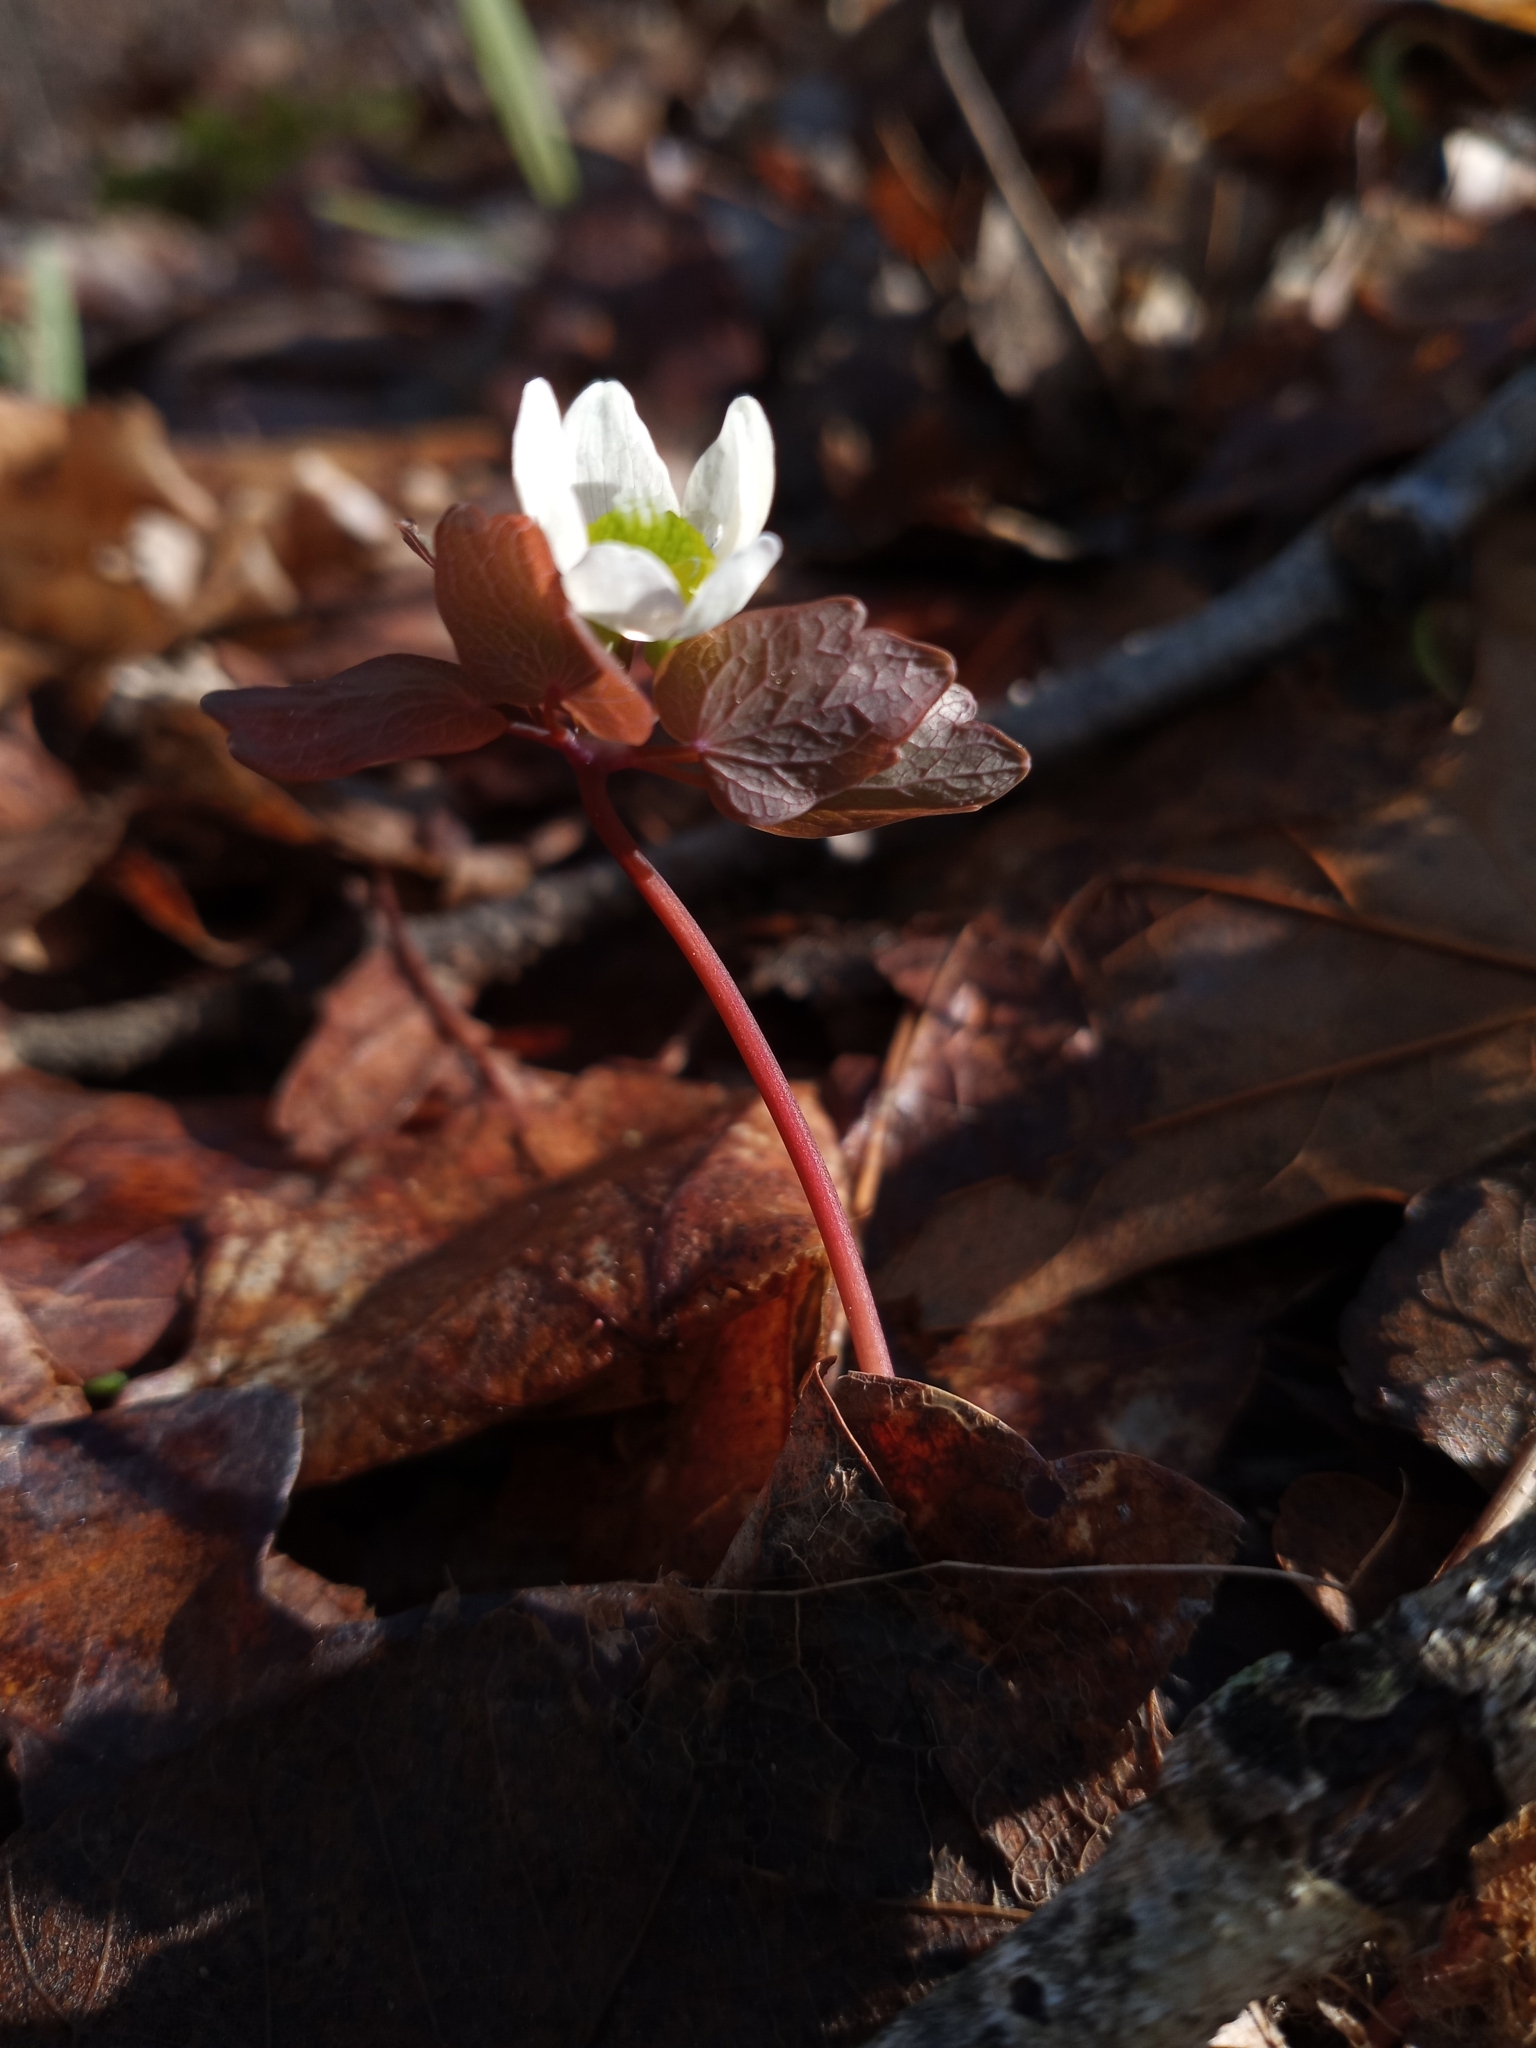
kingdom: Plantae
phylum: Tracheophyta
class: Magnoliopsida
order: Ranunculales
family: Ranunculaceae
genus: Thalictrum
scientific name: Thalictrum thalictroides
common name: Rue-anemone
